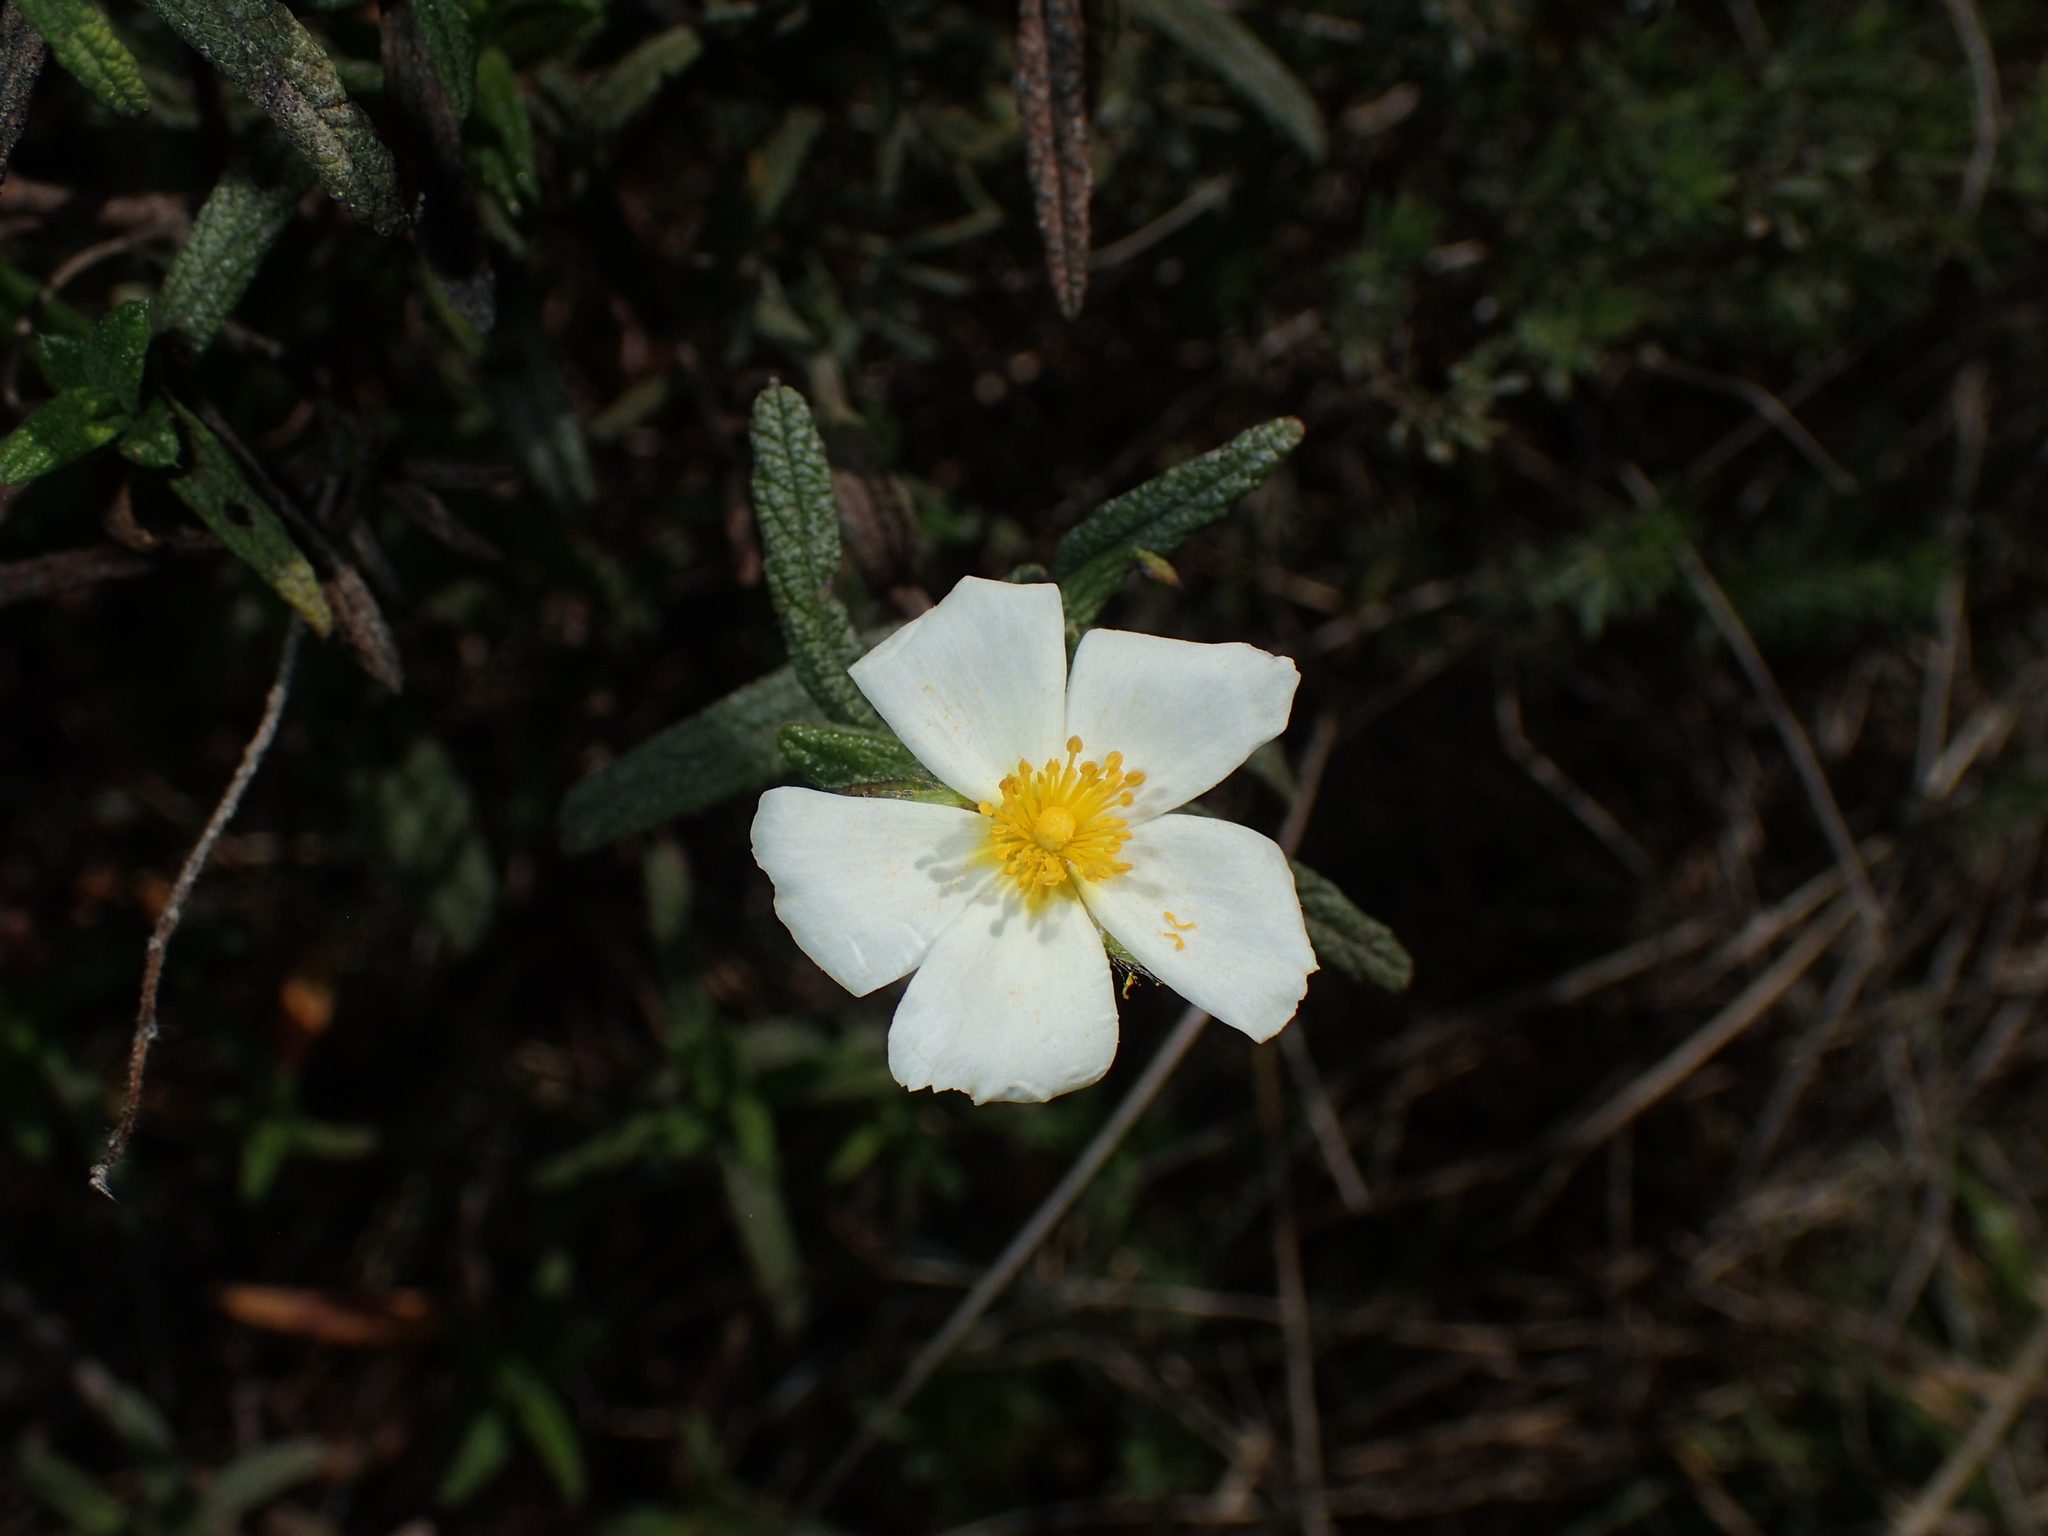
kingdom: Plantae
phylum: Tracheophyta
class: Magnoliopsida
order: Malvales
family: Cistaceae
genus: Cistus
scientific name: Cistus monspeliensis
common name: Montpelier cistus
